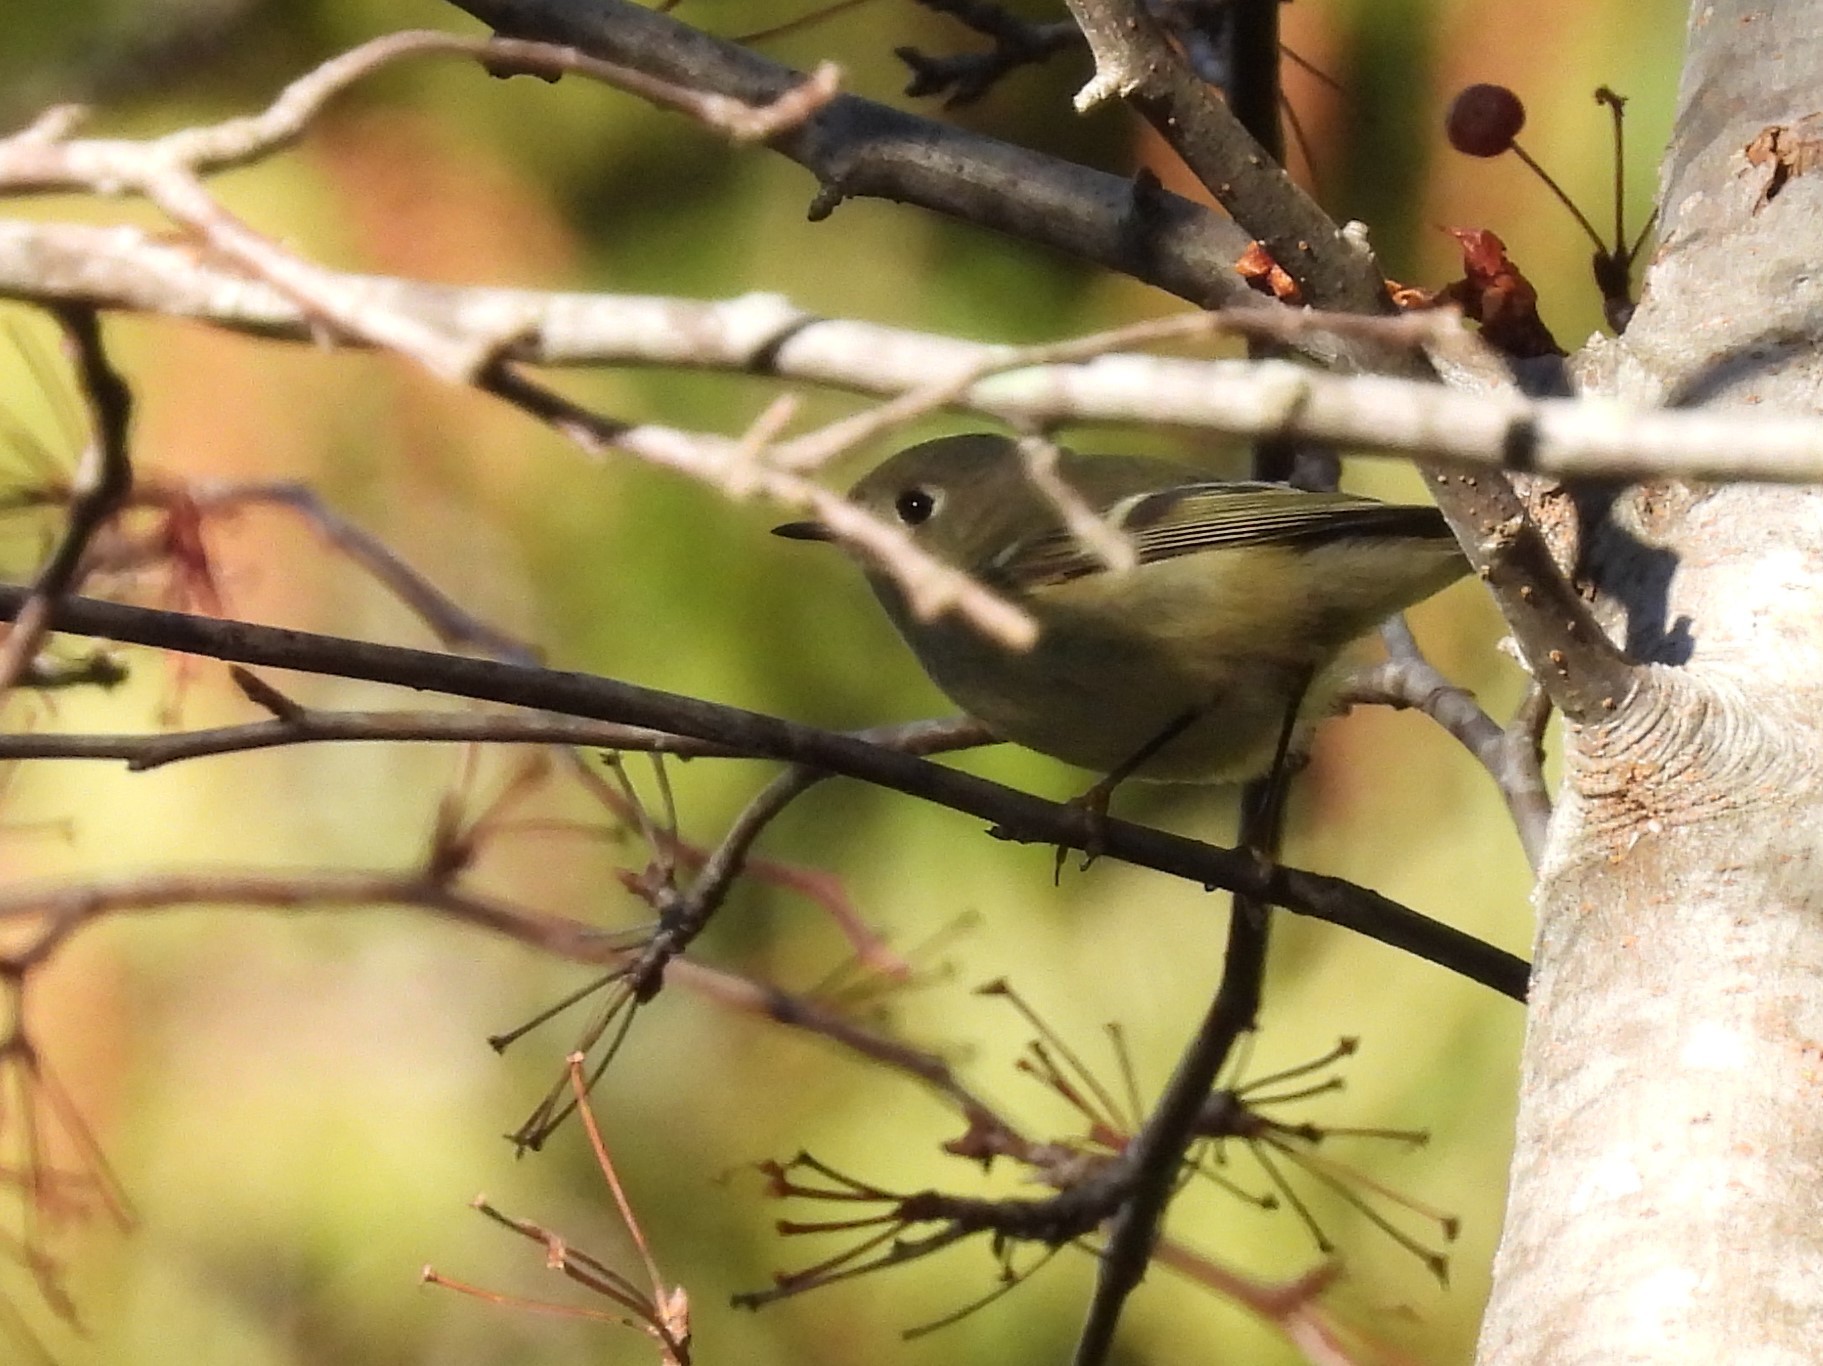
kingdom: Animalia
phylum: Chordata
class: Aves
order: Passeriformes
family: Regulidae
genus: Regulus
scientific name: Regulus calendula
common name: Ruby-crowned kinglet
